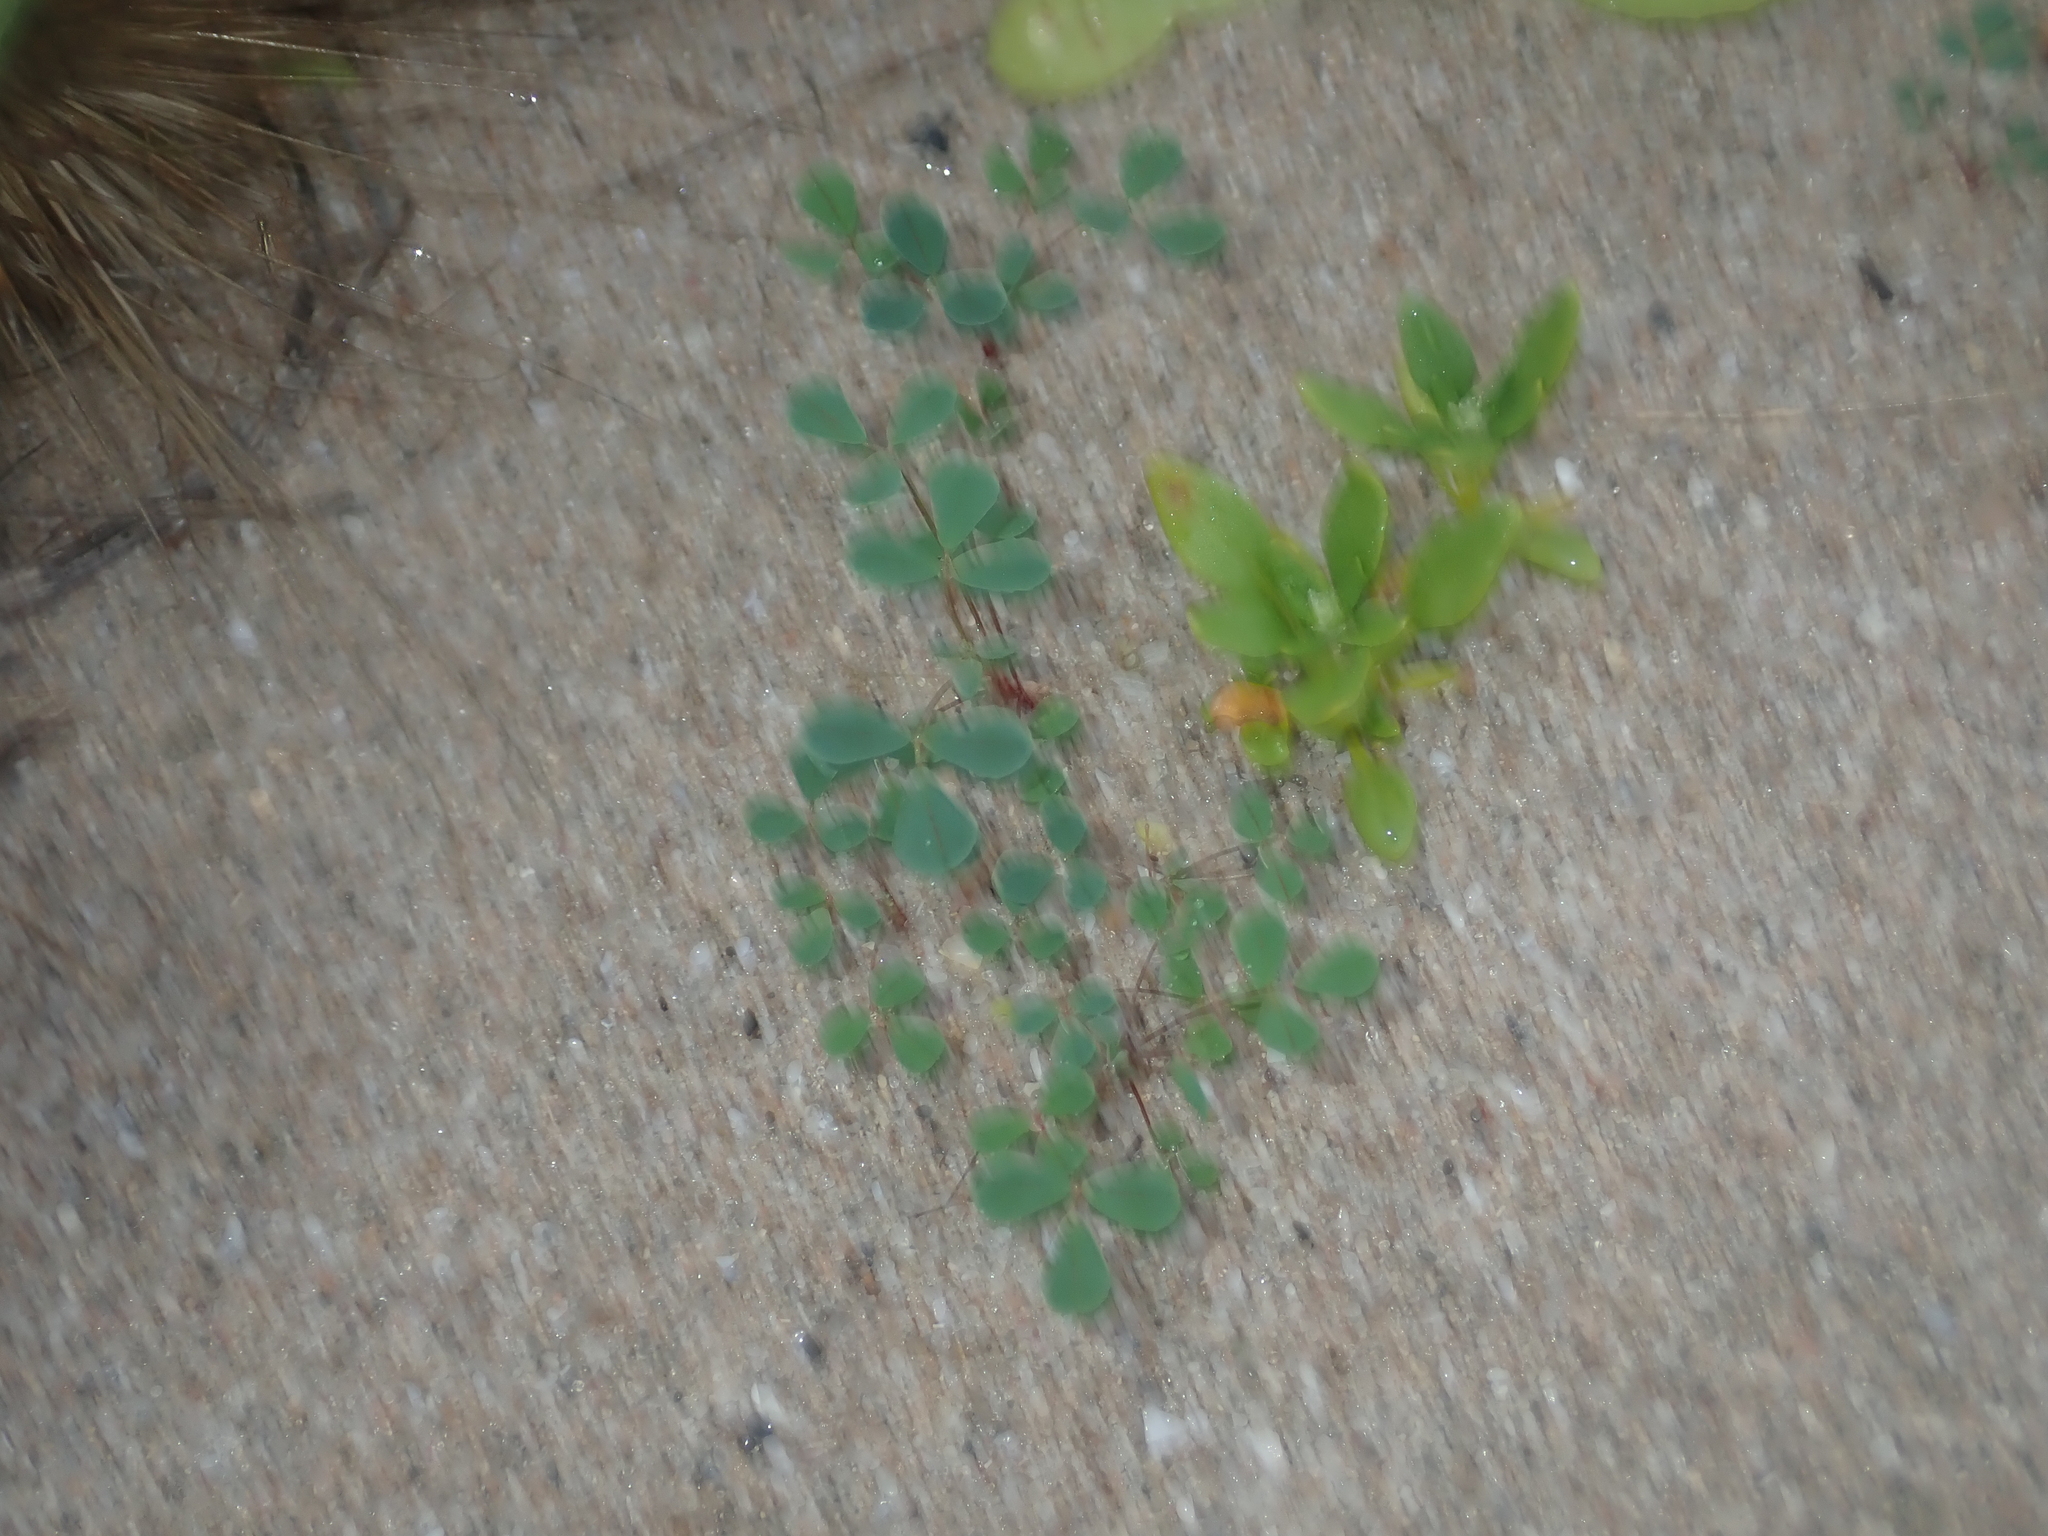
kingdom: Plantae
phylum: Tracheophyta
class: Magnoliopsida
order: Fabales
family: Fabaceae
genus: Melilotus
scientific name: Melilotus indicus
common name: Small melilot
